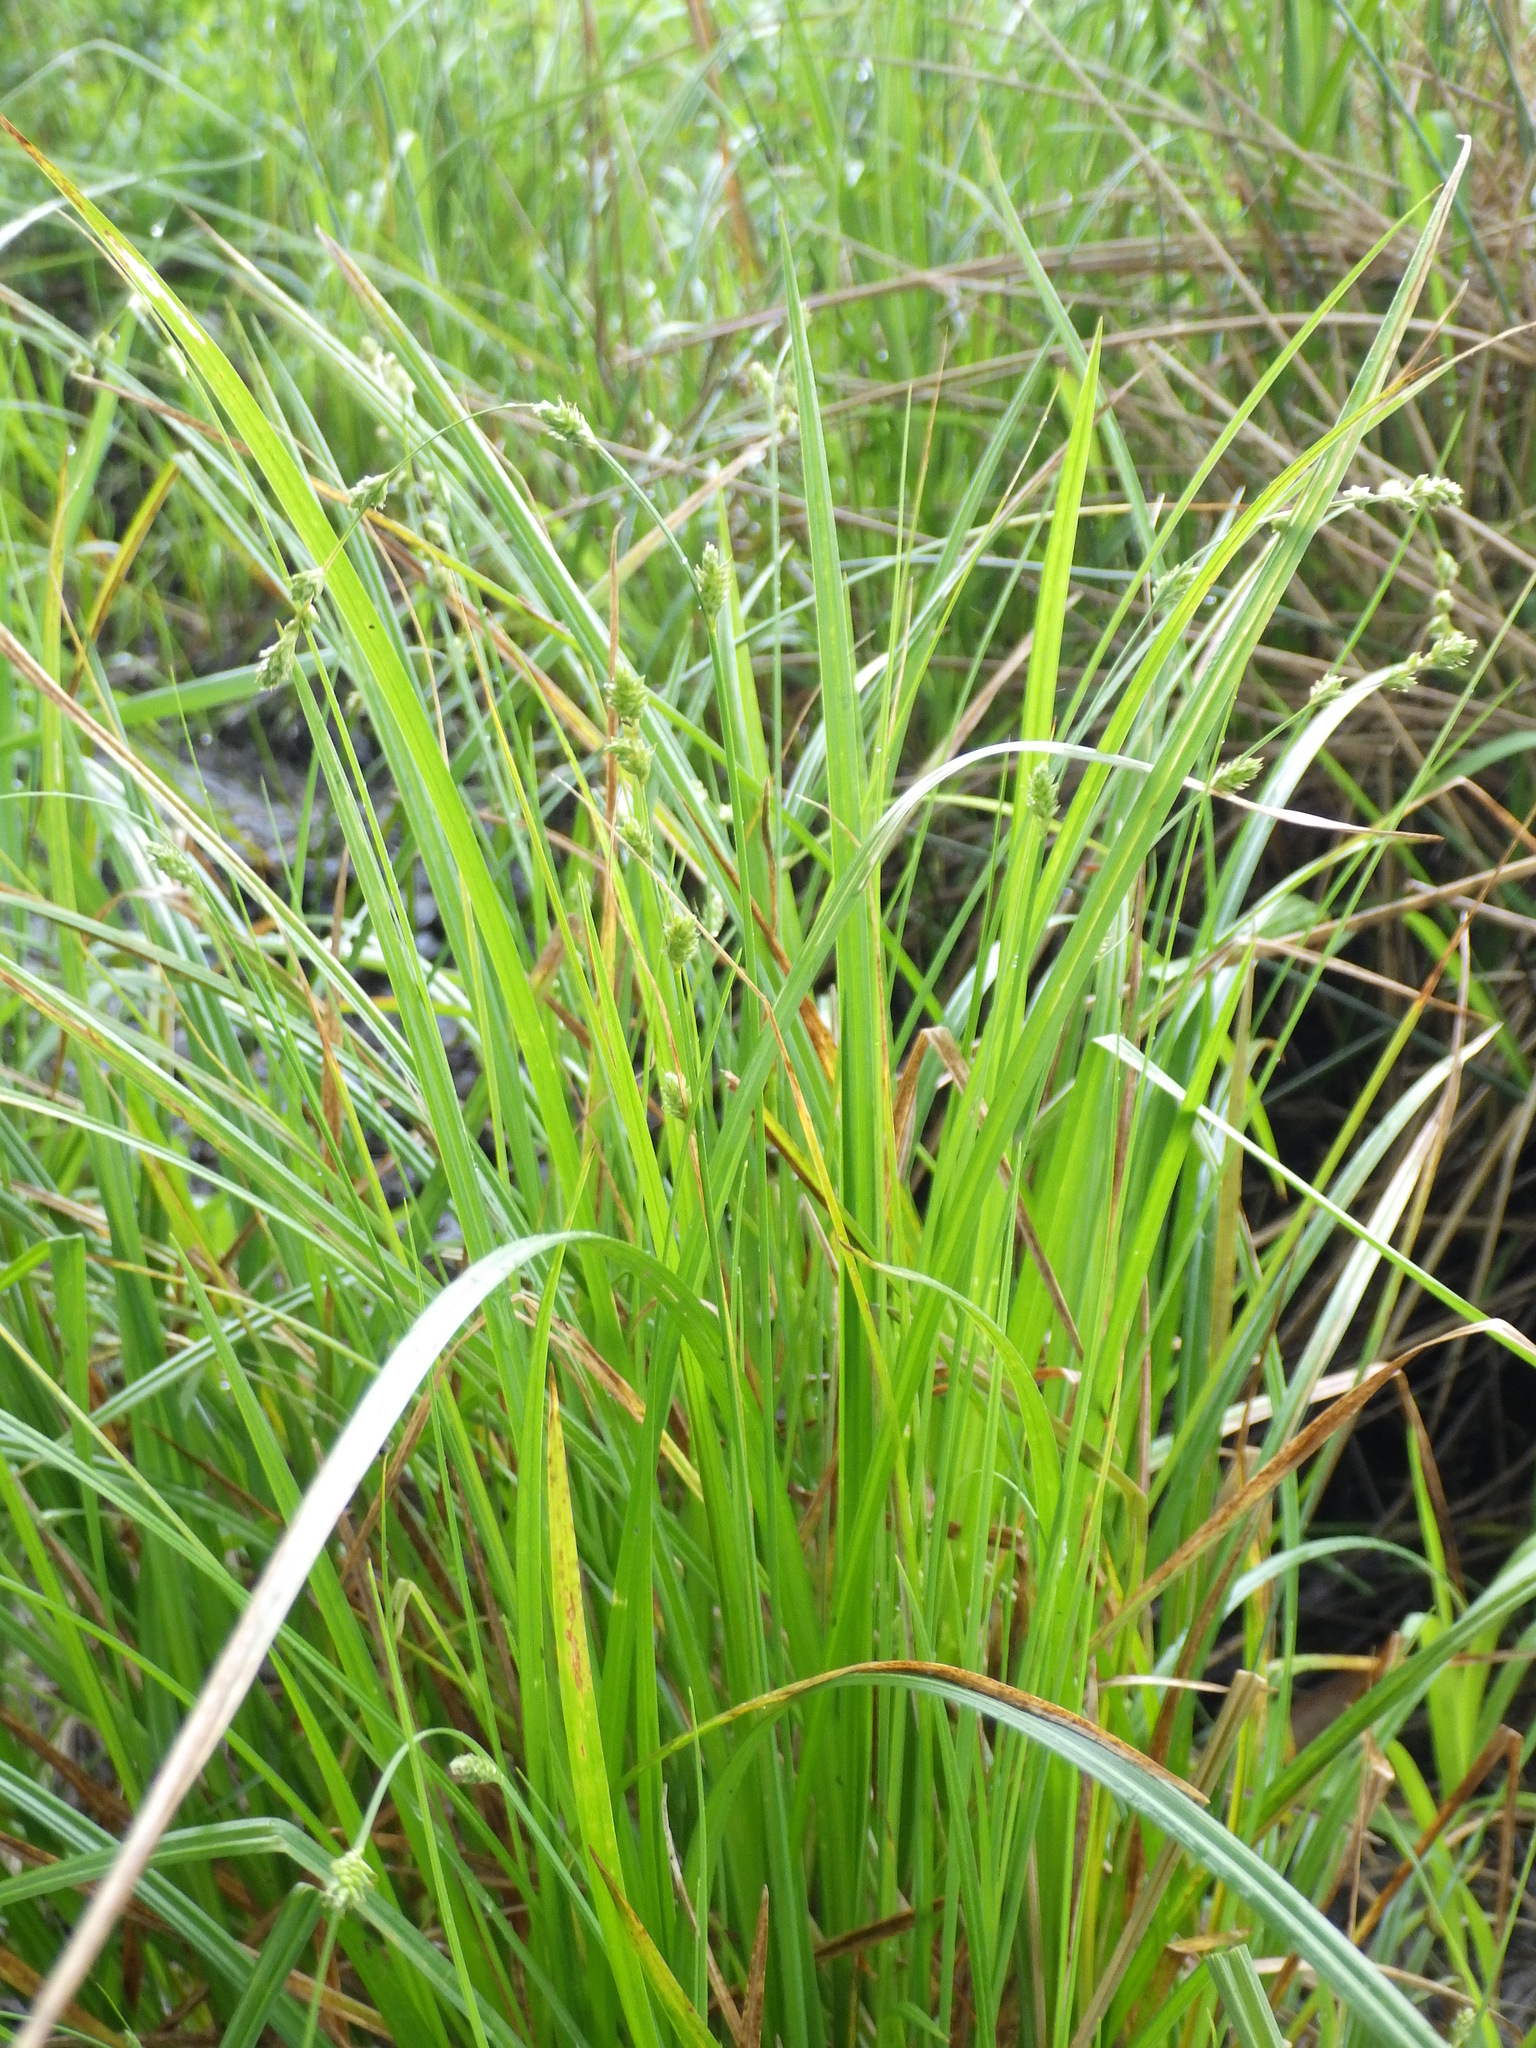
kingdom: Plantae
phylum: Tracheophyta
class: Liliopsida
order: Poales
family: Cyperaceae
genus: Carex
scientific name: Carex canescens
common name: White sedge
